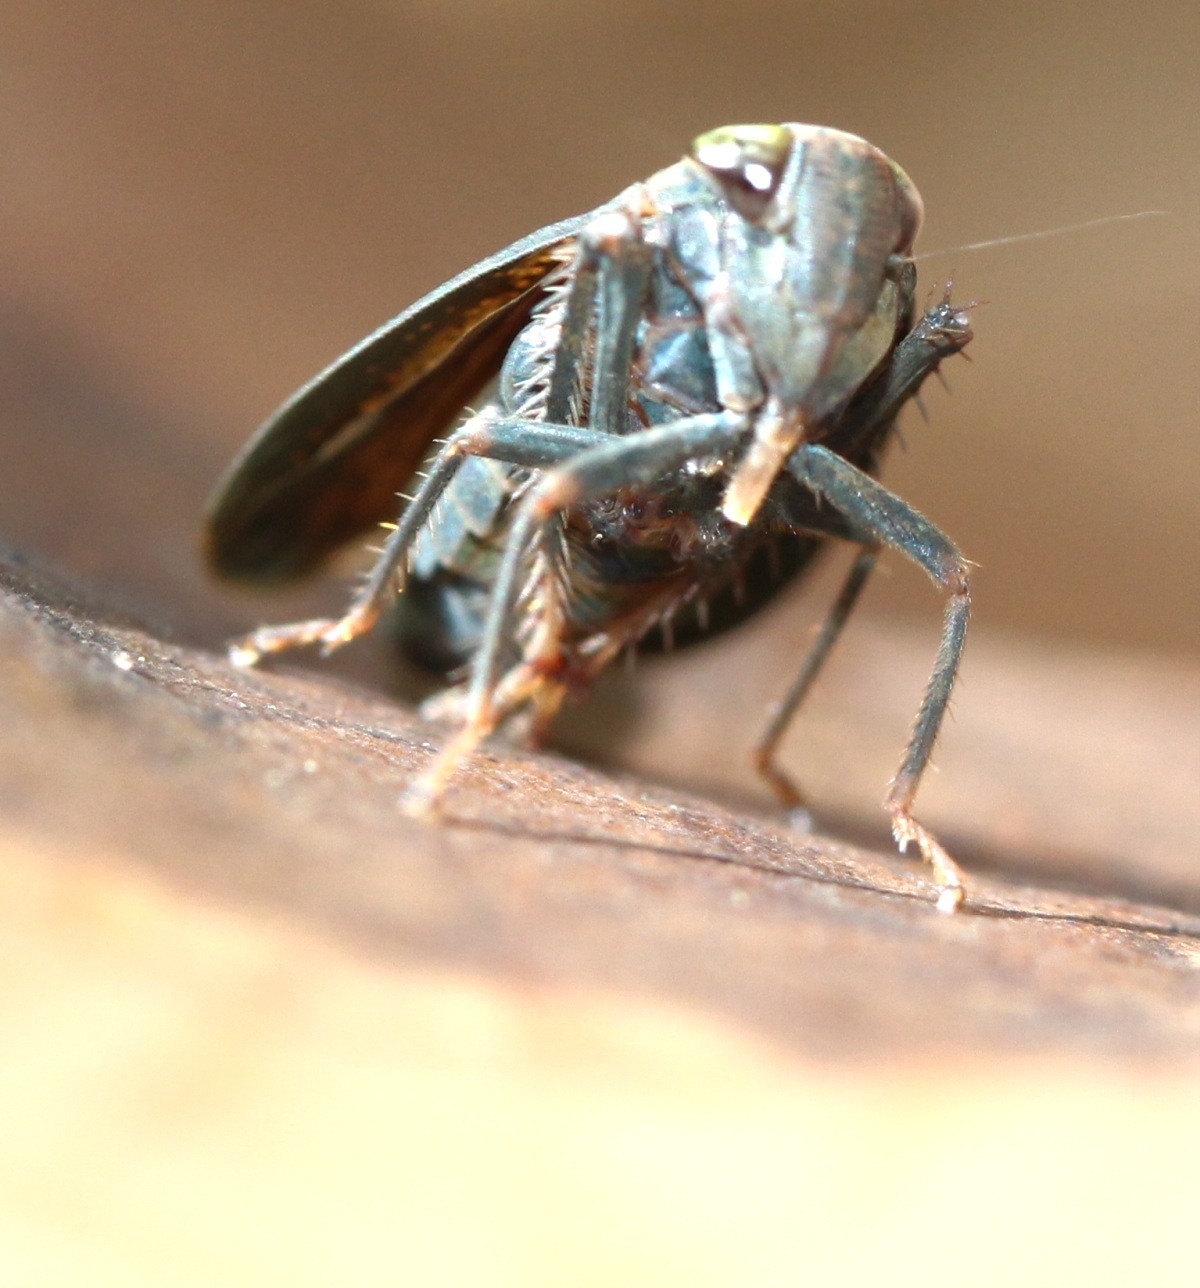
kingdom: Animalia
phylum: Arthropoda
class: Insecta
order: Hemiptera
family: Cicadellidae
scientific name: Cicadellidae
